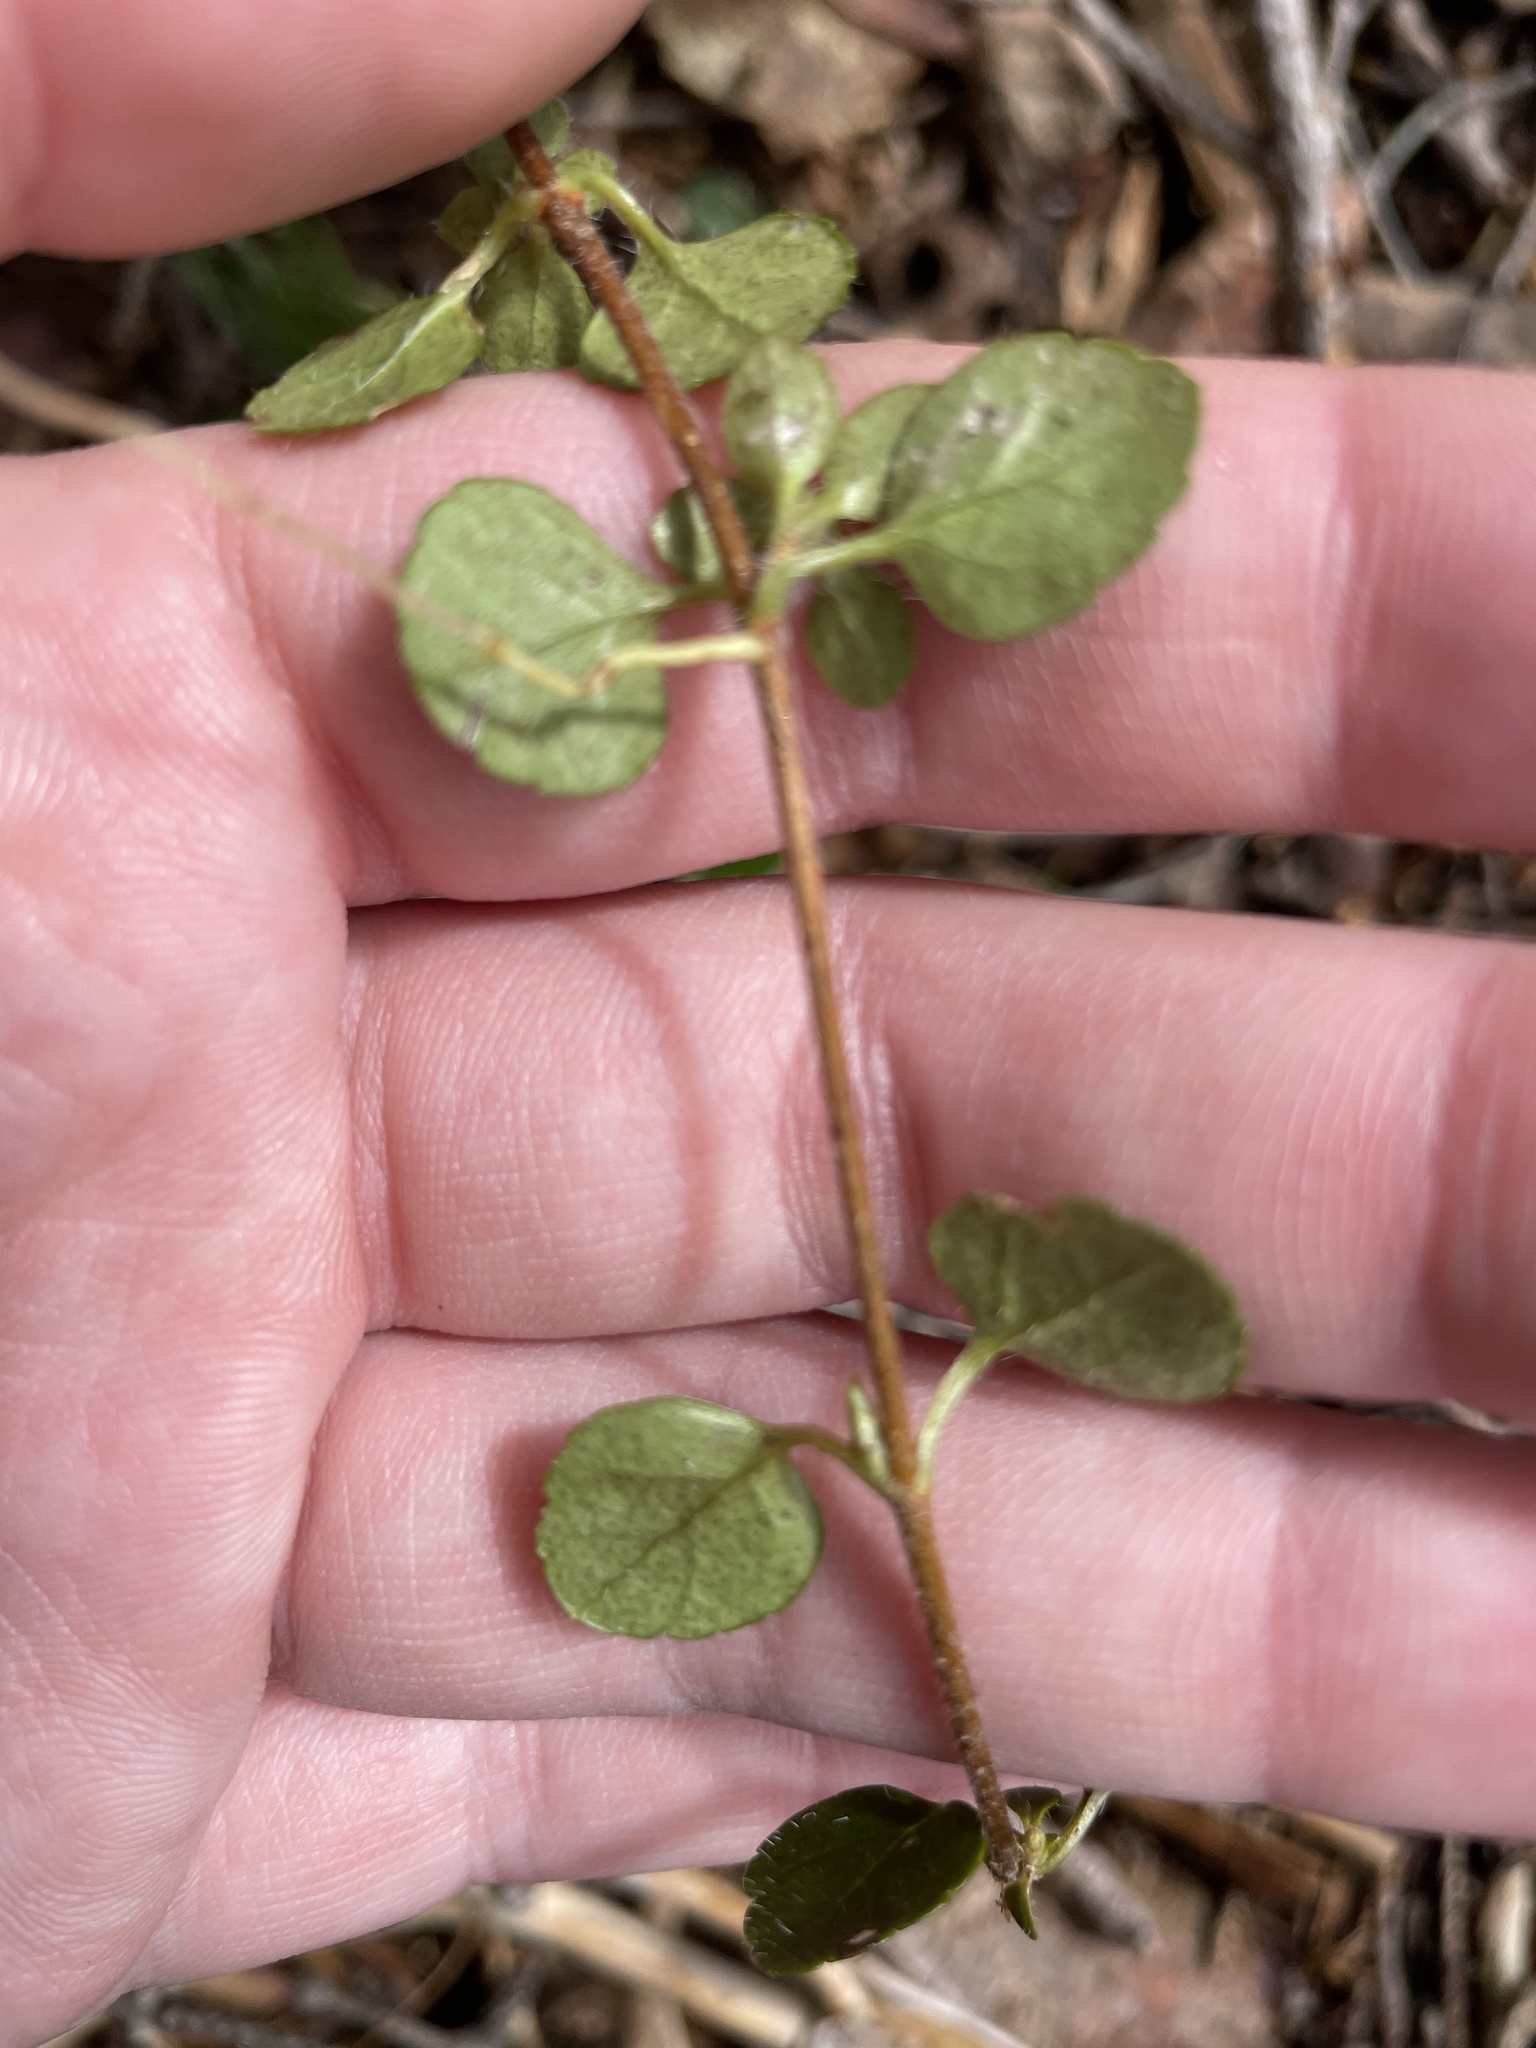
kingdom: Plantae
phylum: Tracheophyta
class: Magnoliopsida
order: Dipsacales
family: Caprifoliaceae
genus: Linnaea
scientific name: Linnaea borealis
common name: Twinflower
